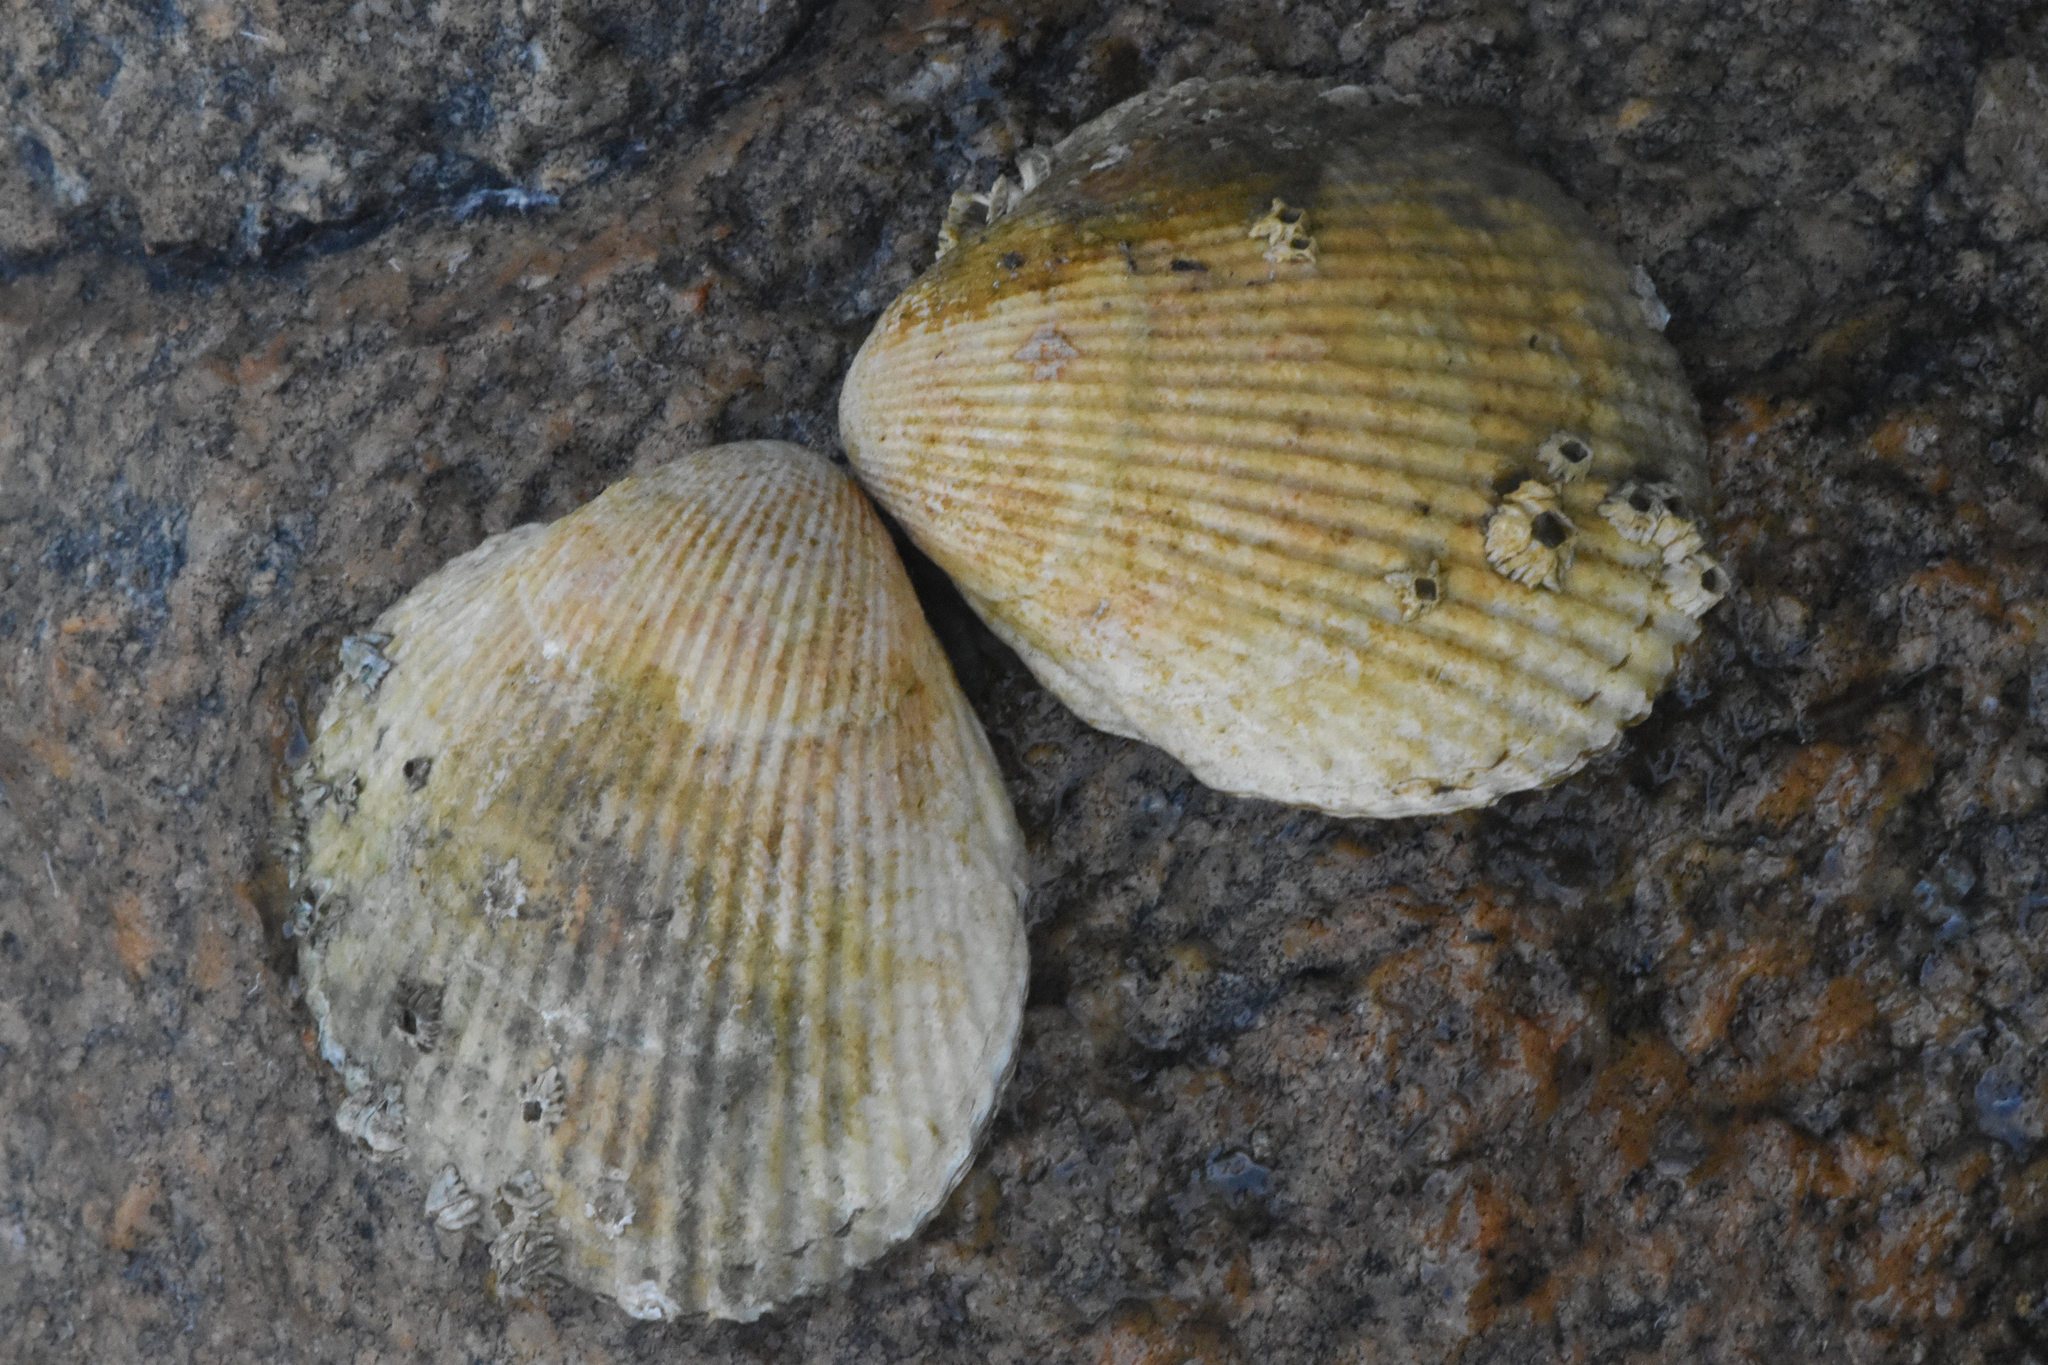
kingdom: Animalia
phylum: Mollusca
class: Bivalvia
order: Cardiida
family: Cardiidae
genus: Clinocardium
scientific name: Clinocardium nuttallii
